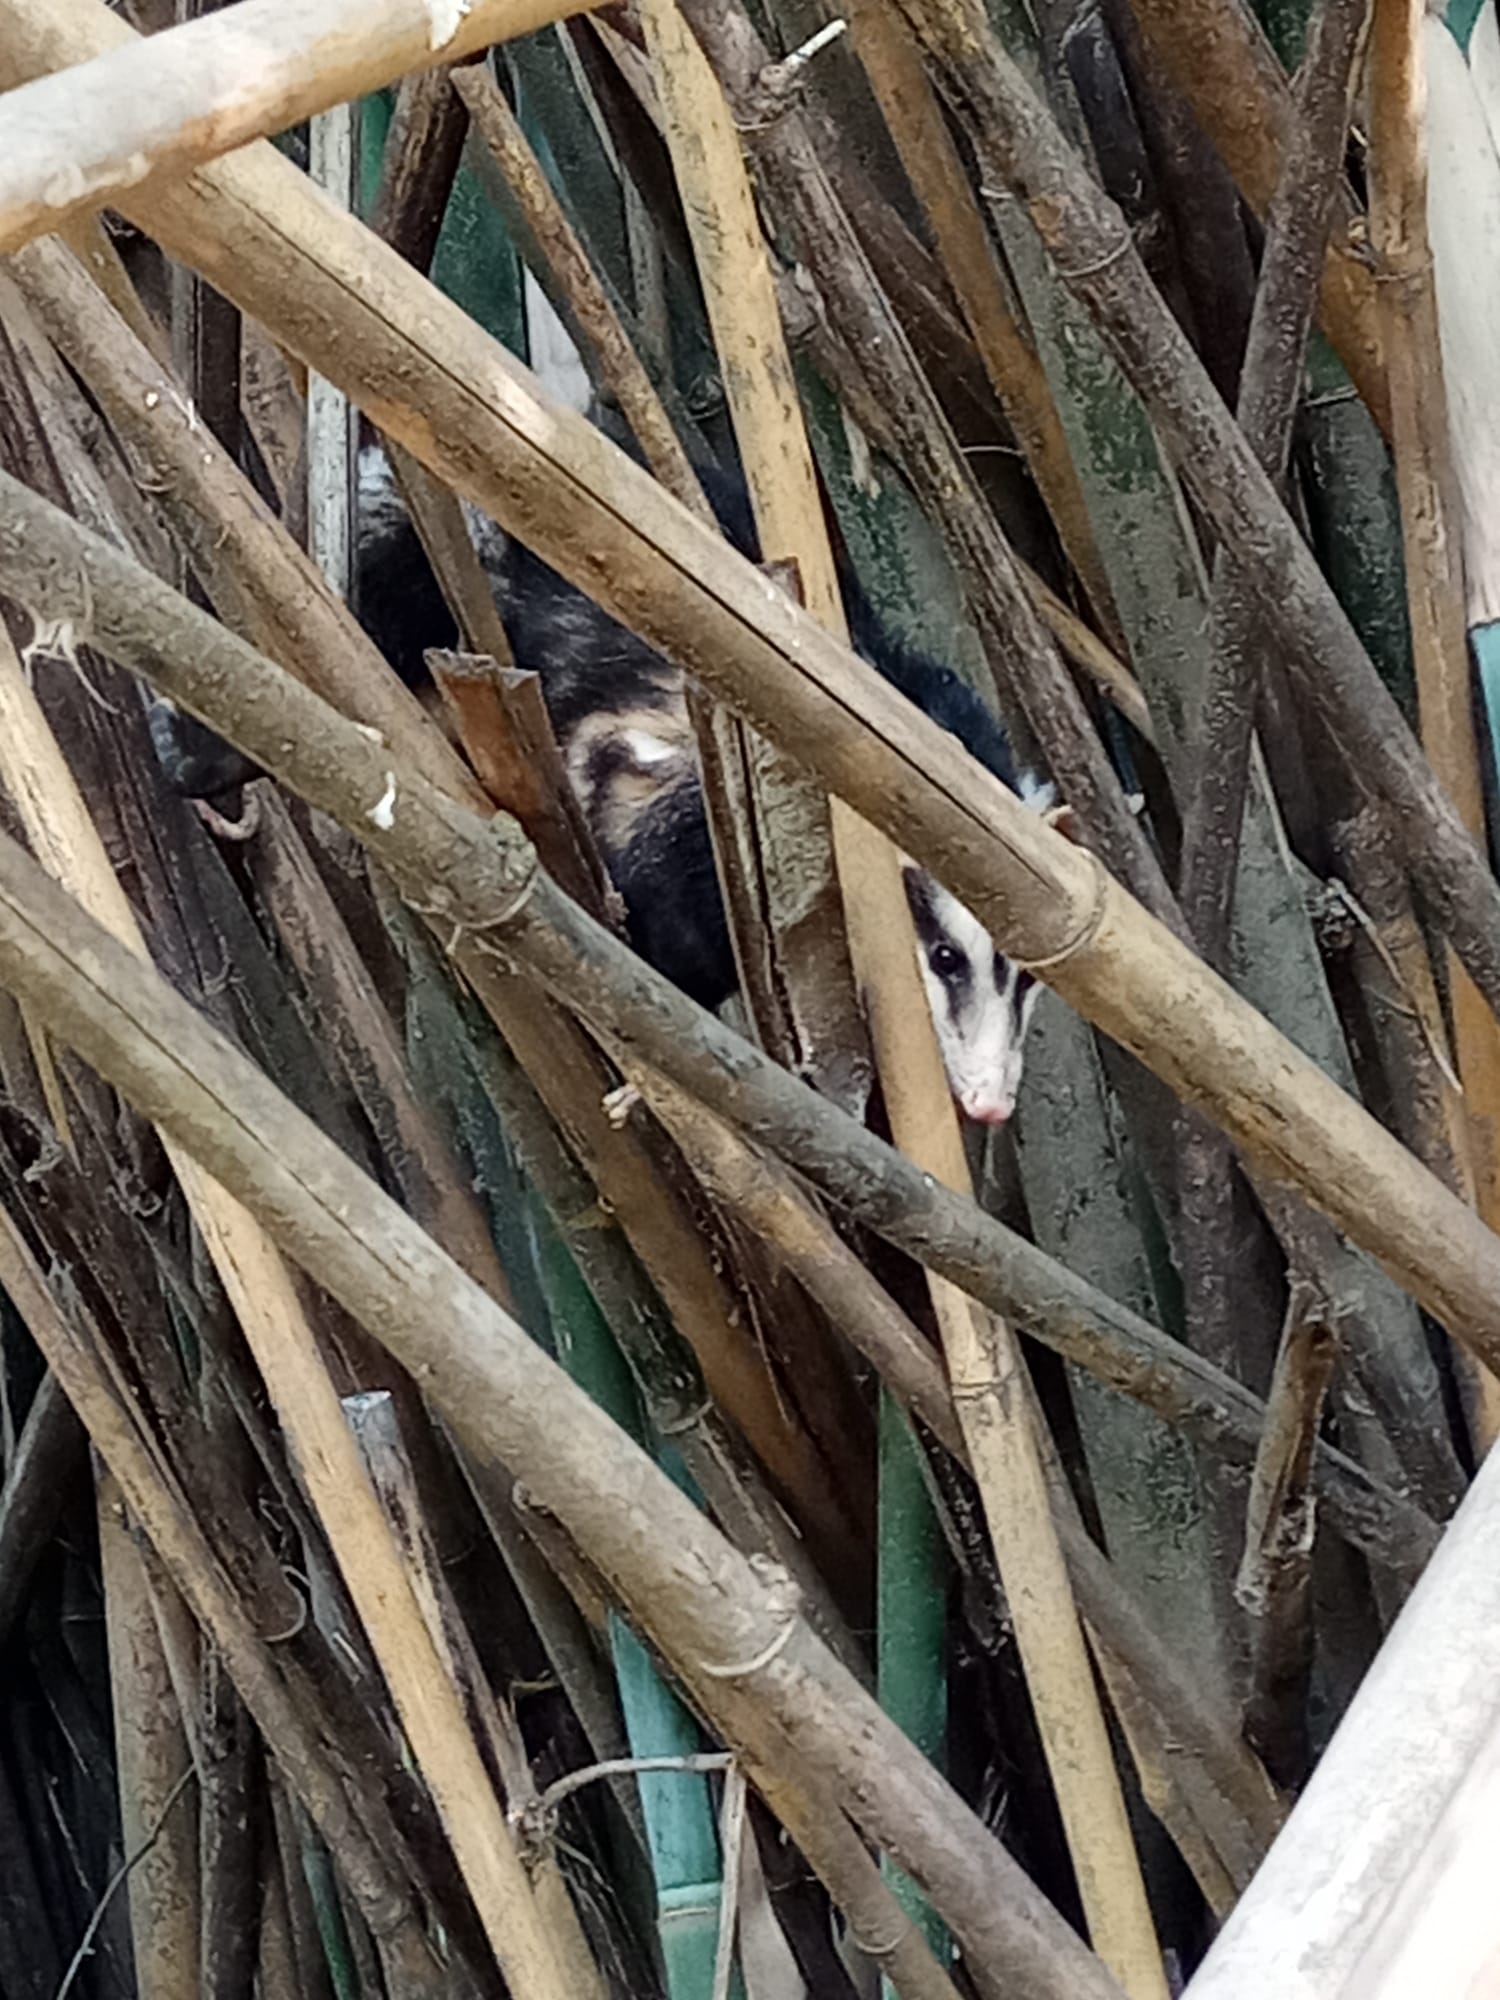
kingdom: Animalia
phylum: Chordata
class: Mammalia
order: Didelphimorphia
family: Didelphidae
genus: Didelphis
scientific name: Didelphis albiventris
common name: White-eared opossum
